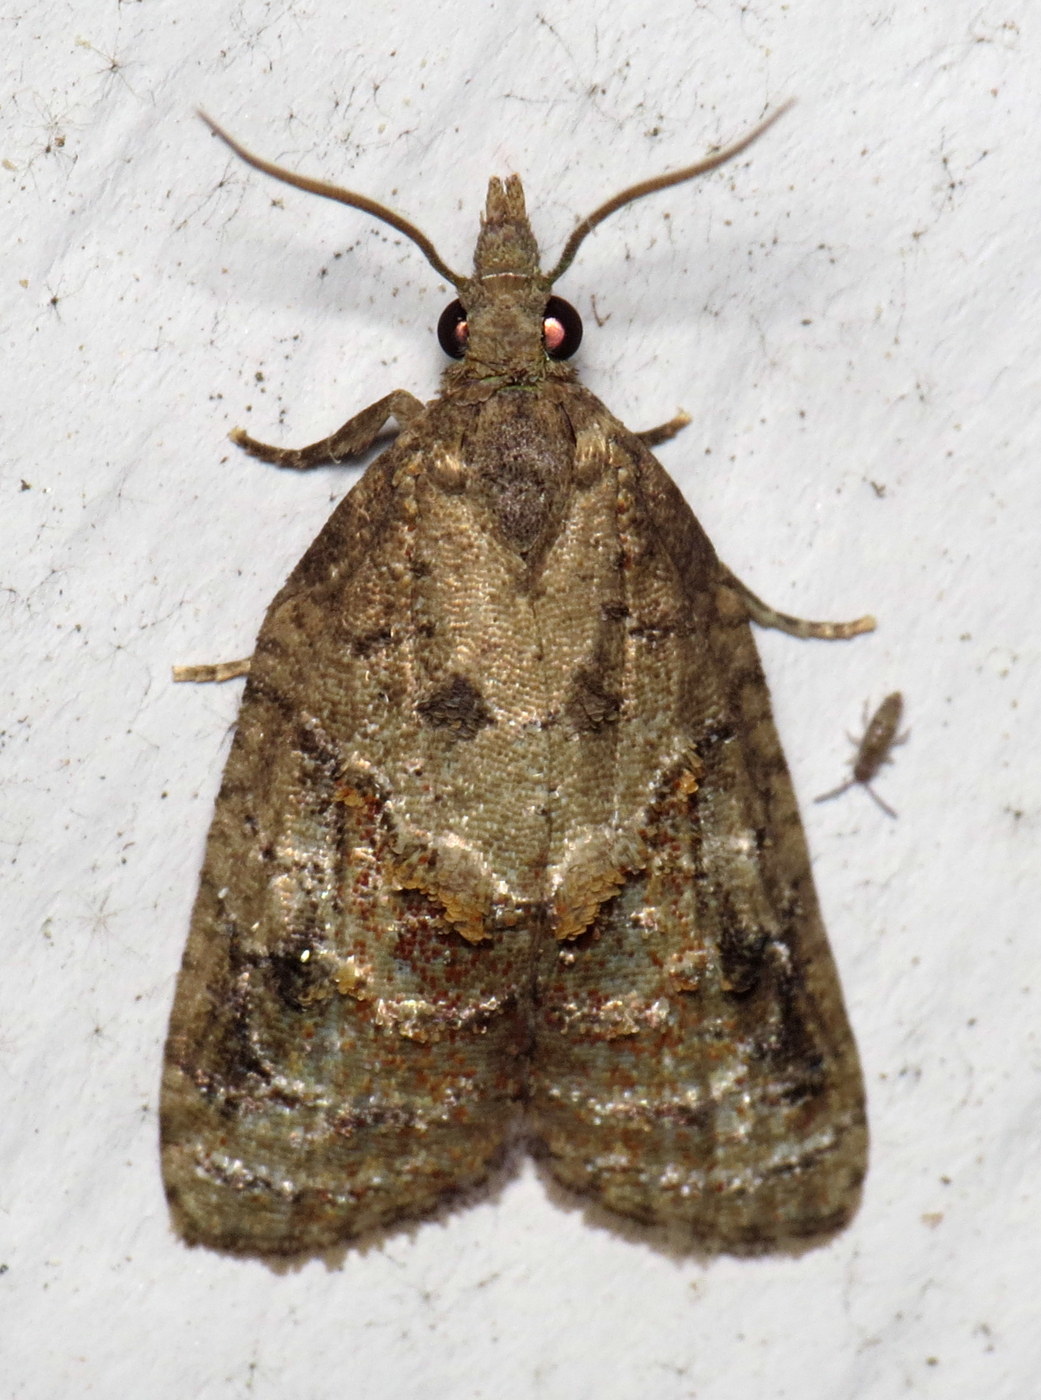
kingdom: Animalia
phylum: Arthropoda
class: Insecta
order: Lepidoptera
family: Tortricidae
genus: Platynota
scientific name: Platynota idaeusalis
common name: Tufted apple bud moth
